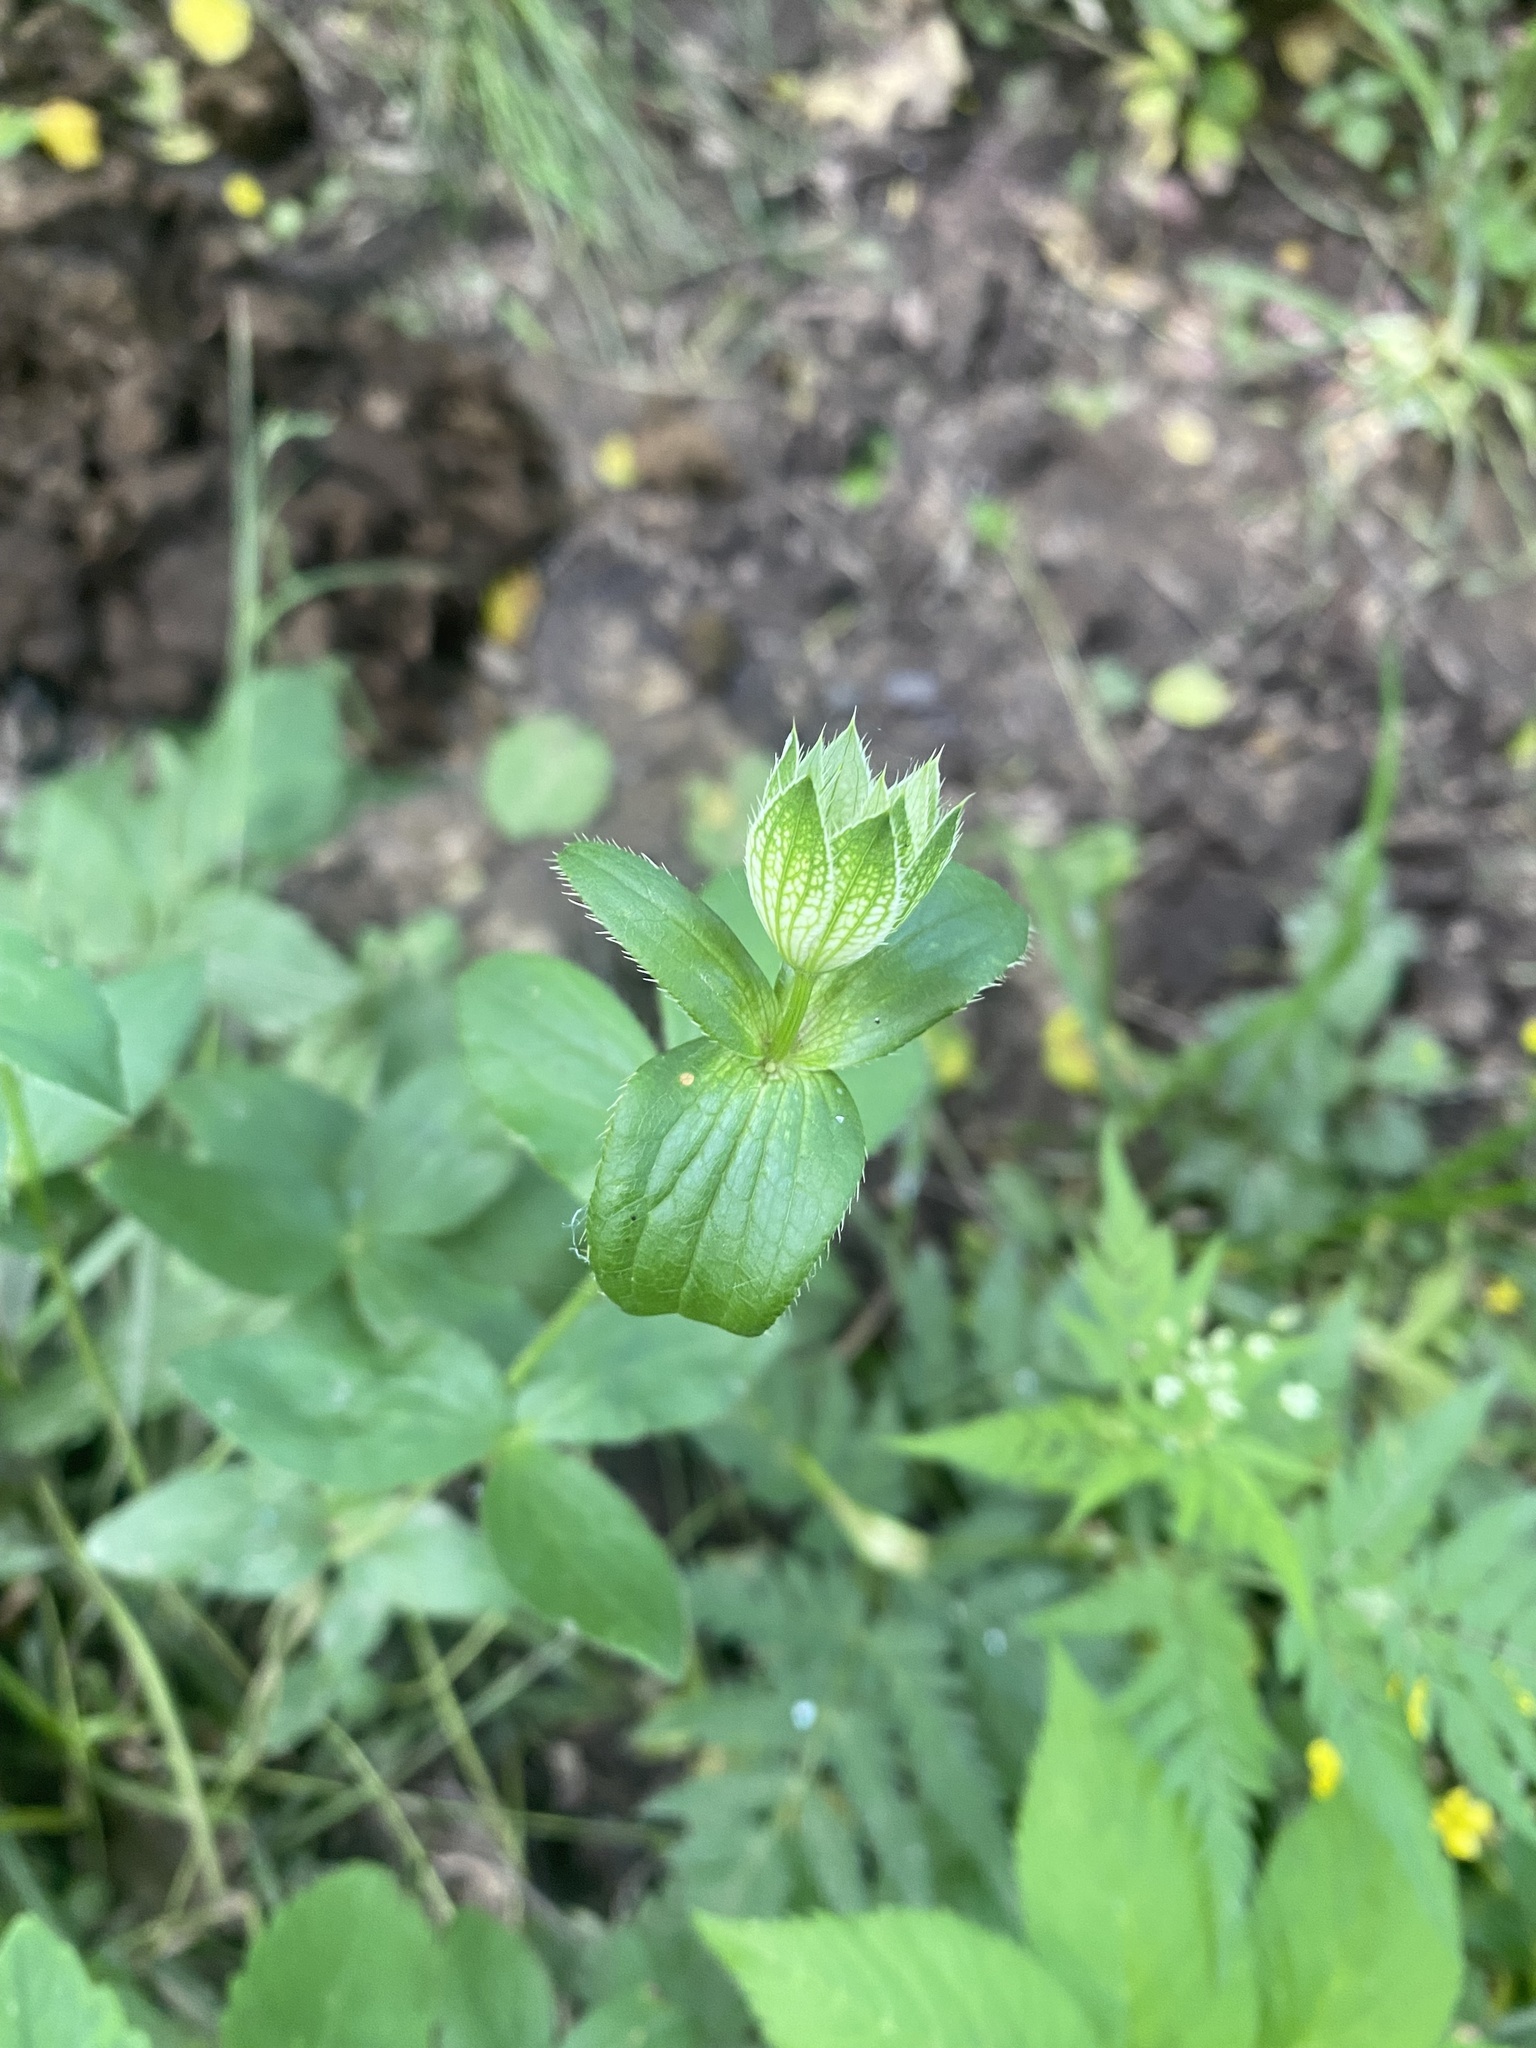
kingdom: Plantae
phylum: Tracheophyta
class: Magnoliopsida
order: Apiales
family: Apiaceae
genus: Astrantia
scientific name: Astrantia maxima
